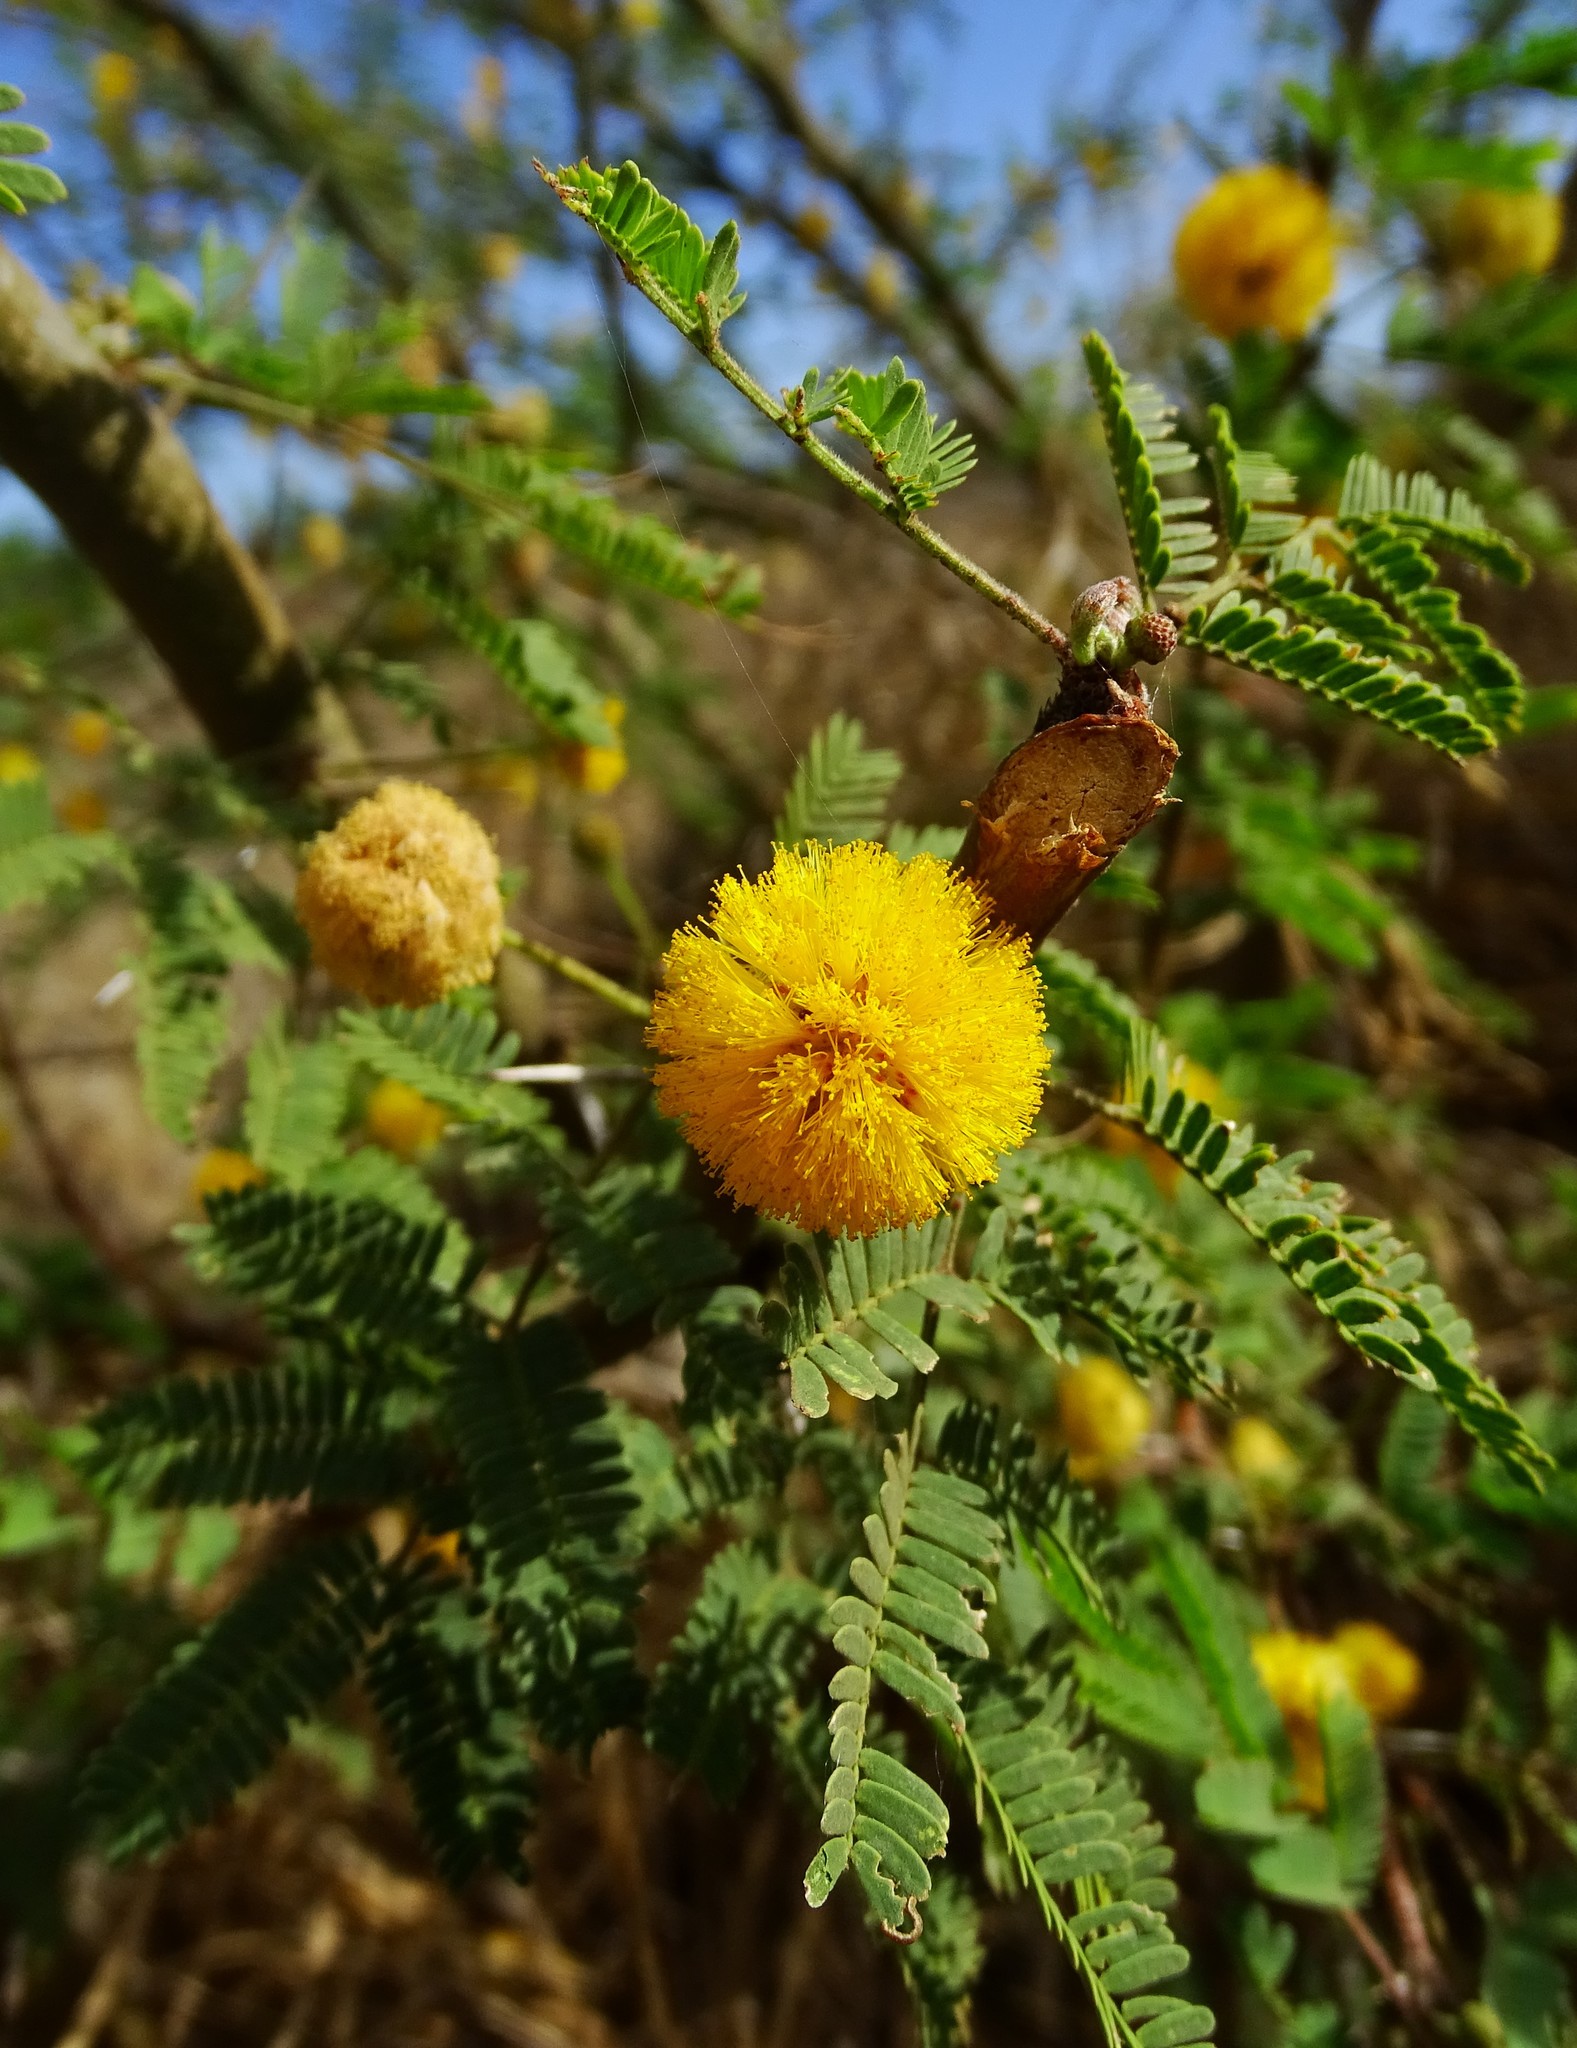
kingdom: Plantae
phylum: Tracheophyta
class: Magnoliopsida
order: Fabales
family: Fabaceae
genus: Vachellia
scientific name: Vachellia farnesiana
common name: Sweet acacia
